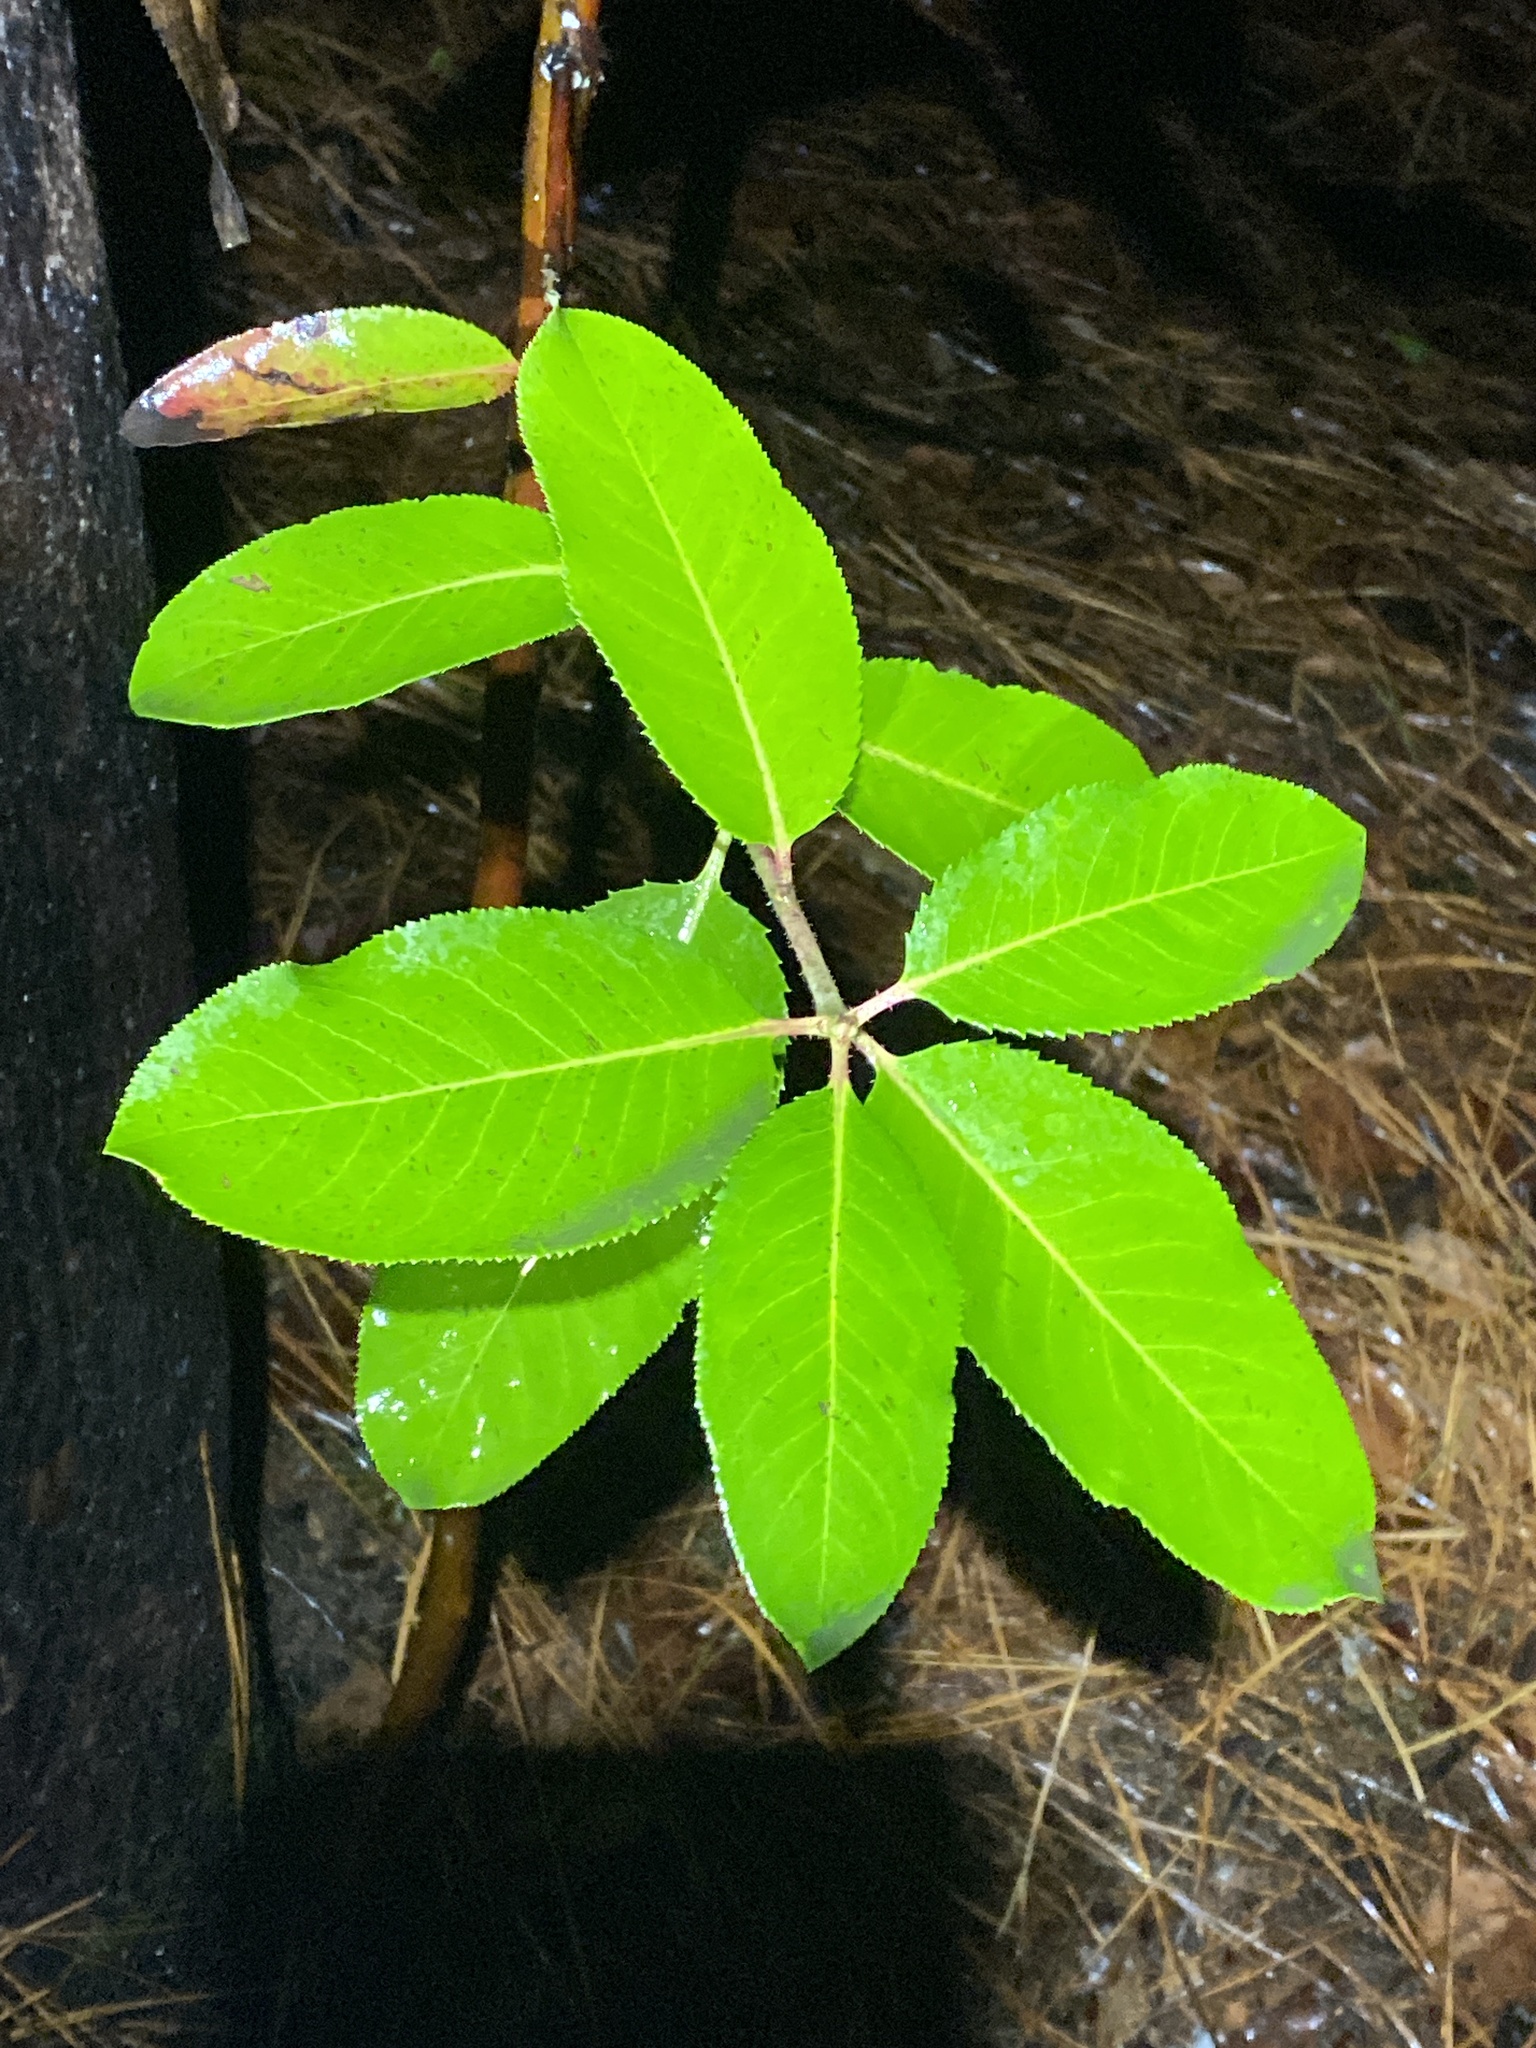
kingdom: Plantae
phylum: Tracheophyta
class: Magnoliopsida
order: Ericales
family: Ericaceae
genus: Arbutus
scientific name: Arbutus menziesii
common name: Pacific madrone
